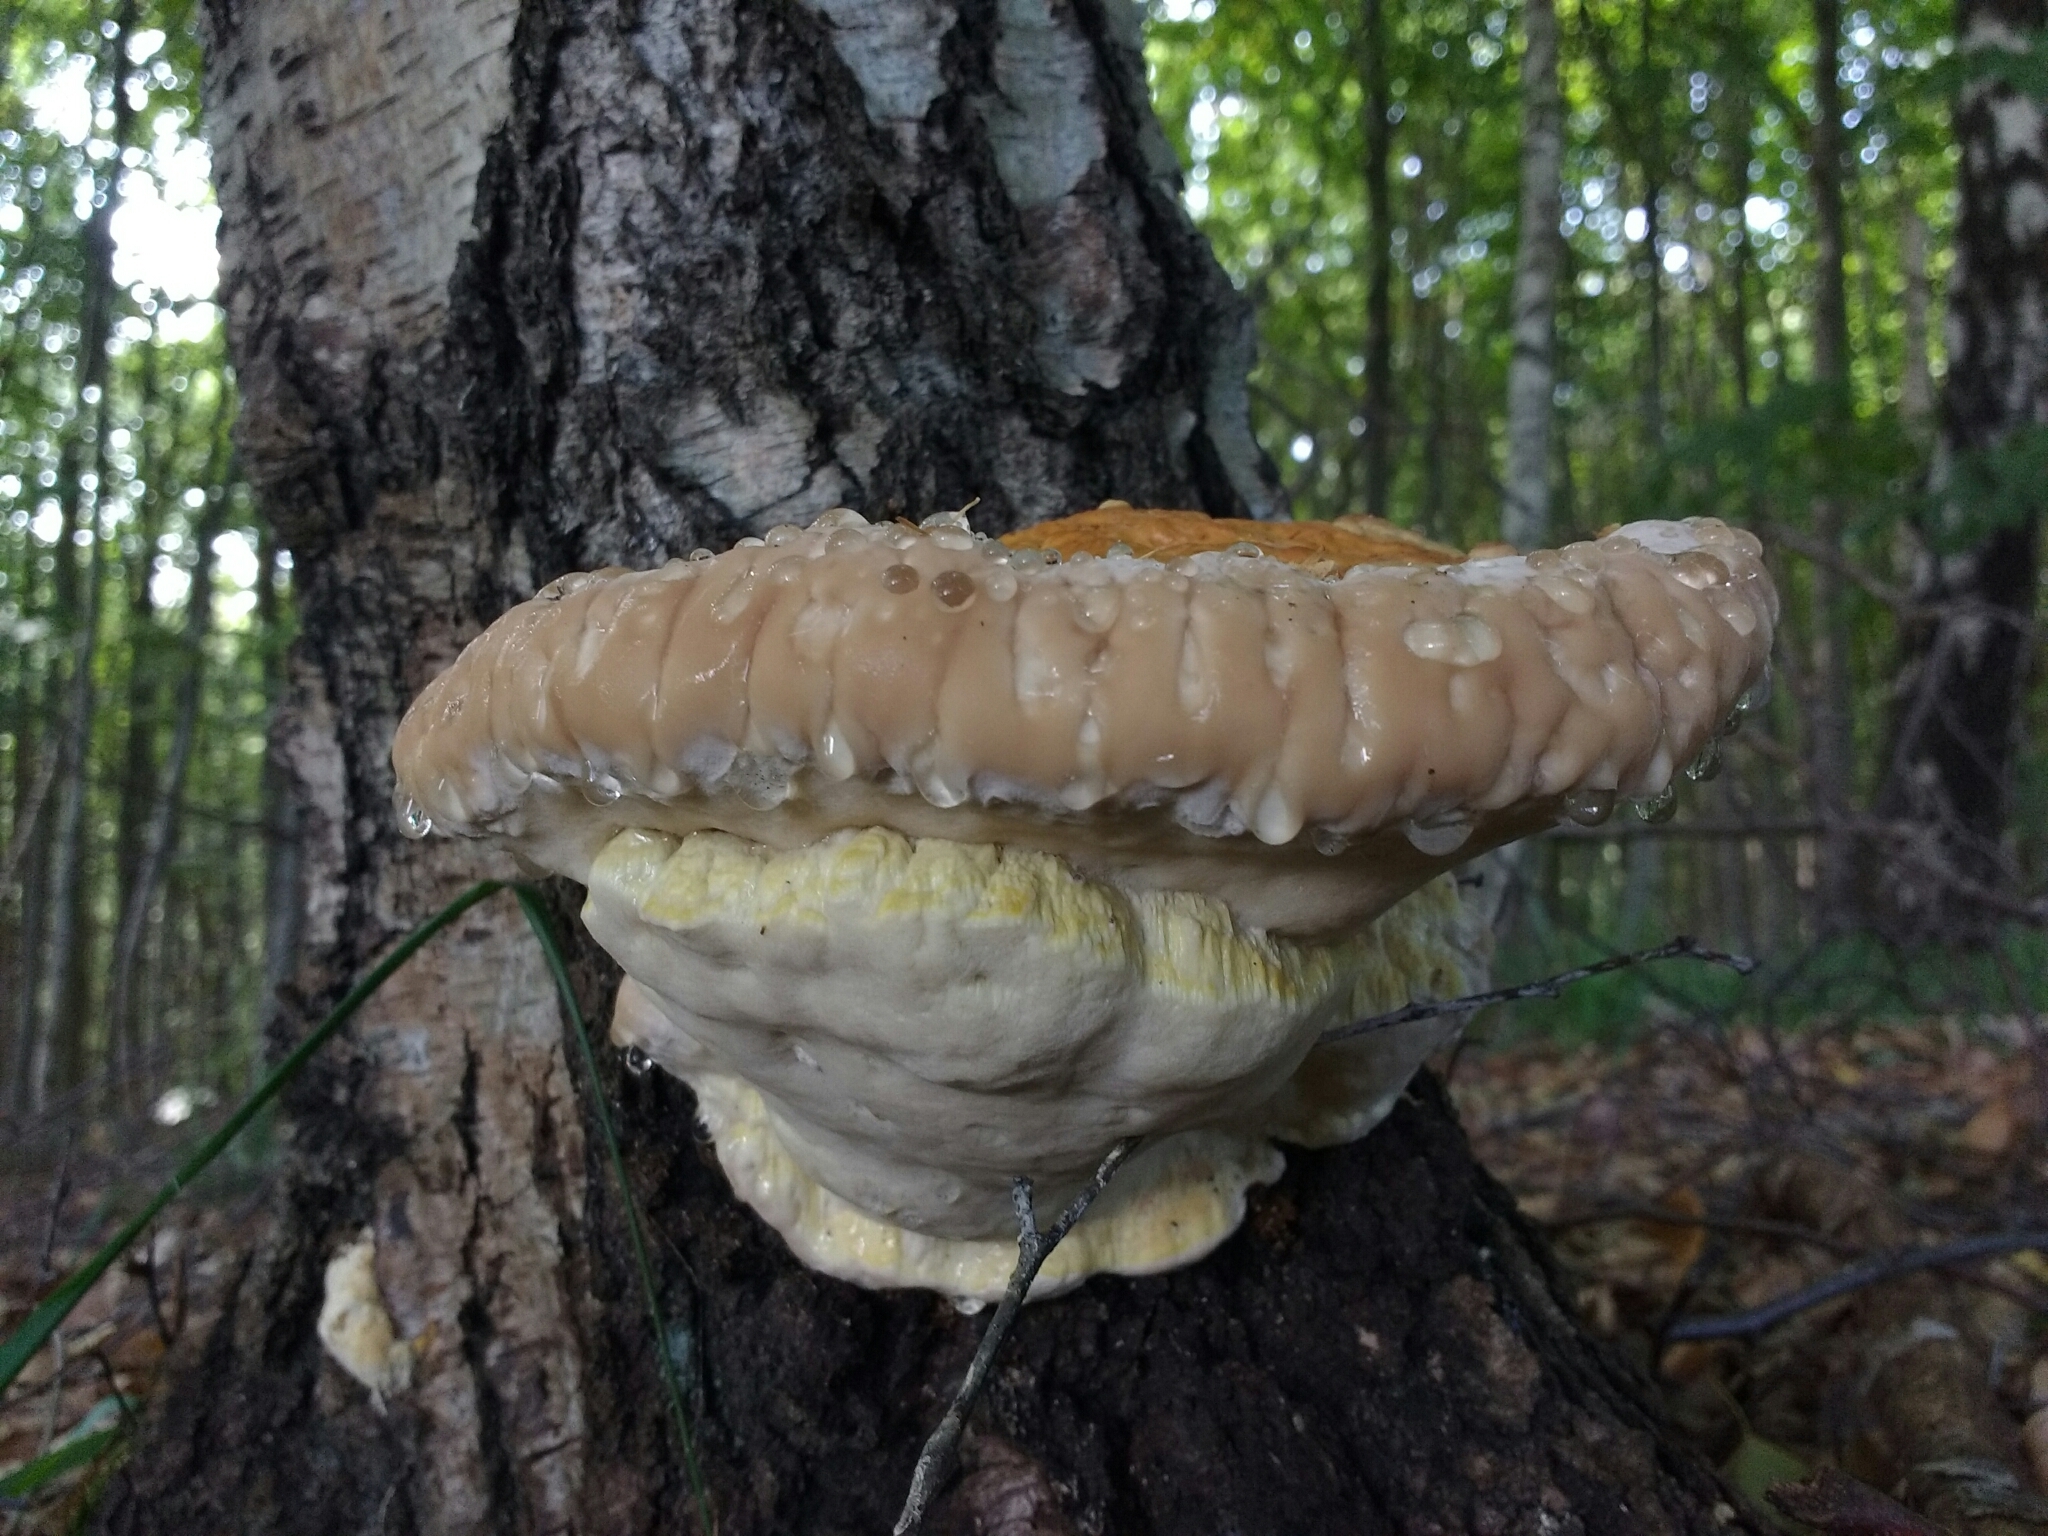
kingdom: Fungi
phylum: Basidiomycota
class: Agaricomycetes
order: Polyporales
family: Fomitopsidaceae
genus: Fomitopsis
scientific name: Fomitopsis pinicola
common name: Red-belted bracket
